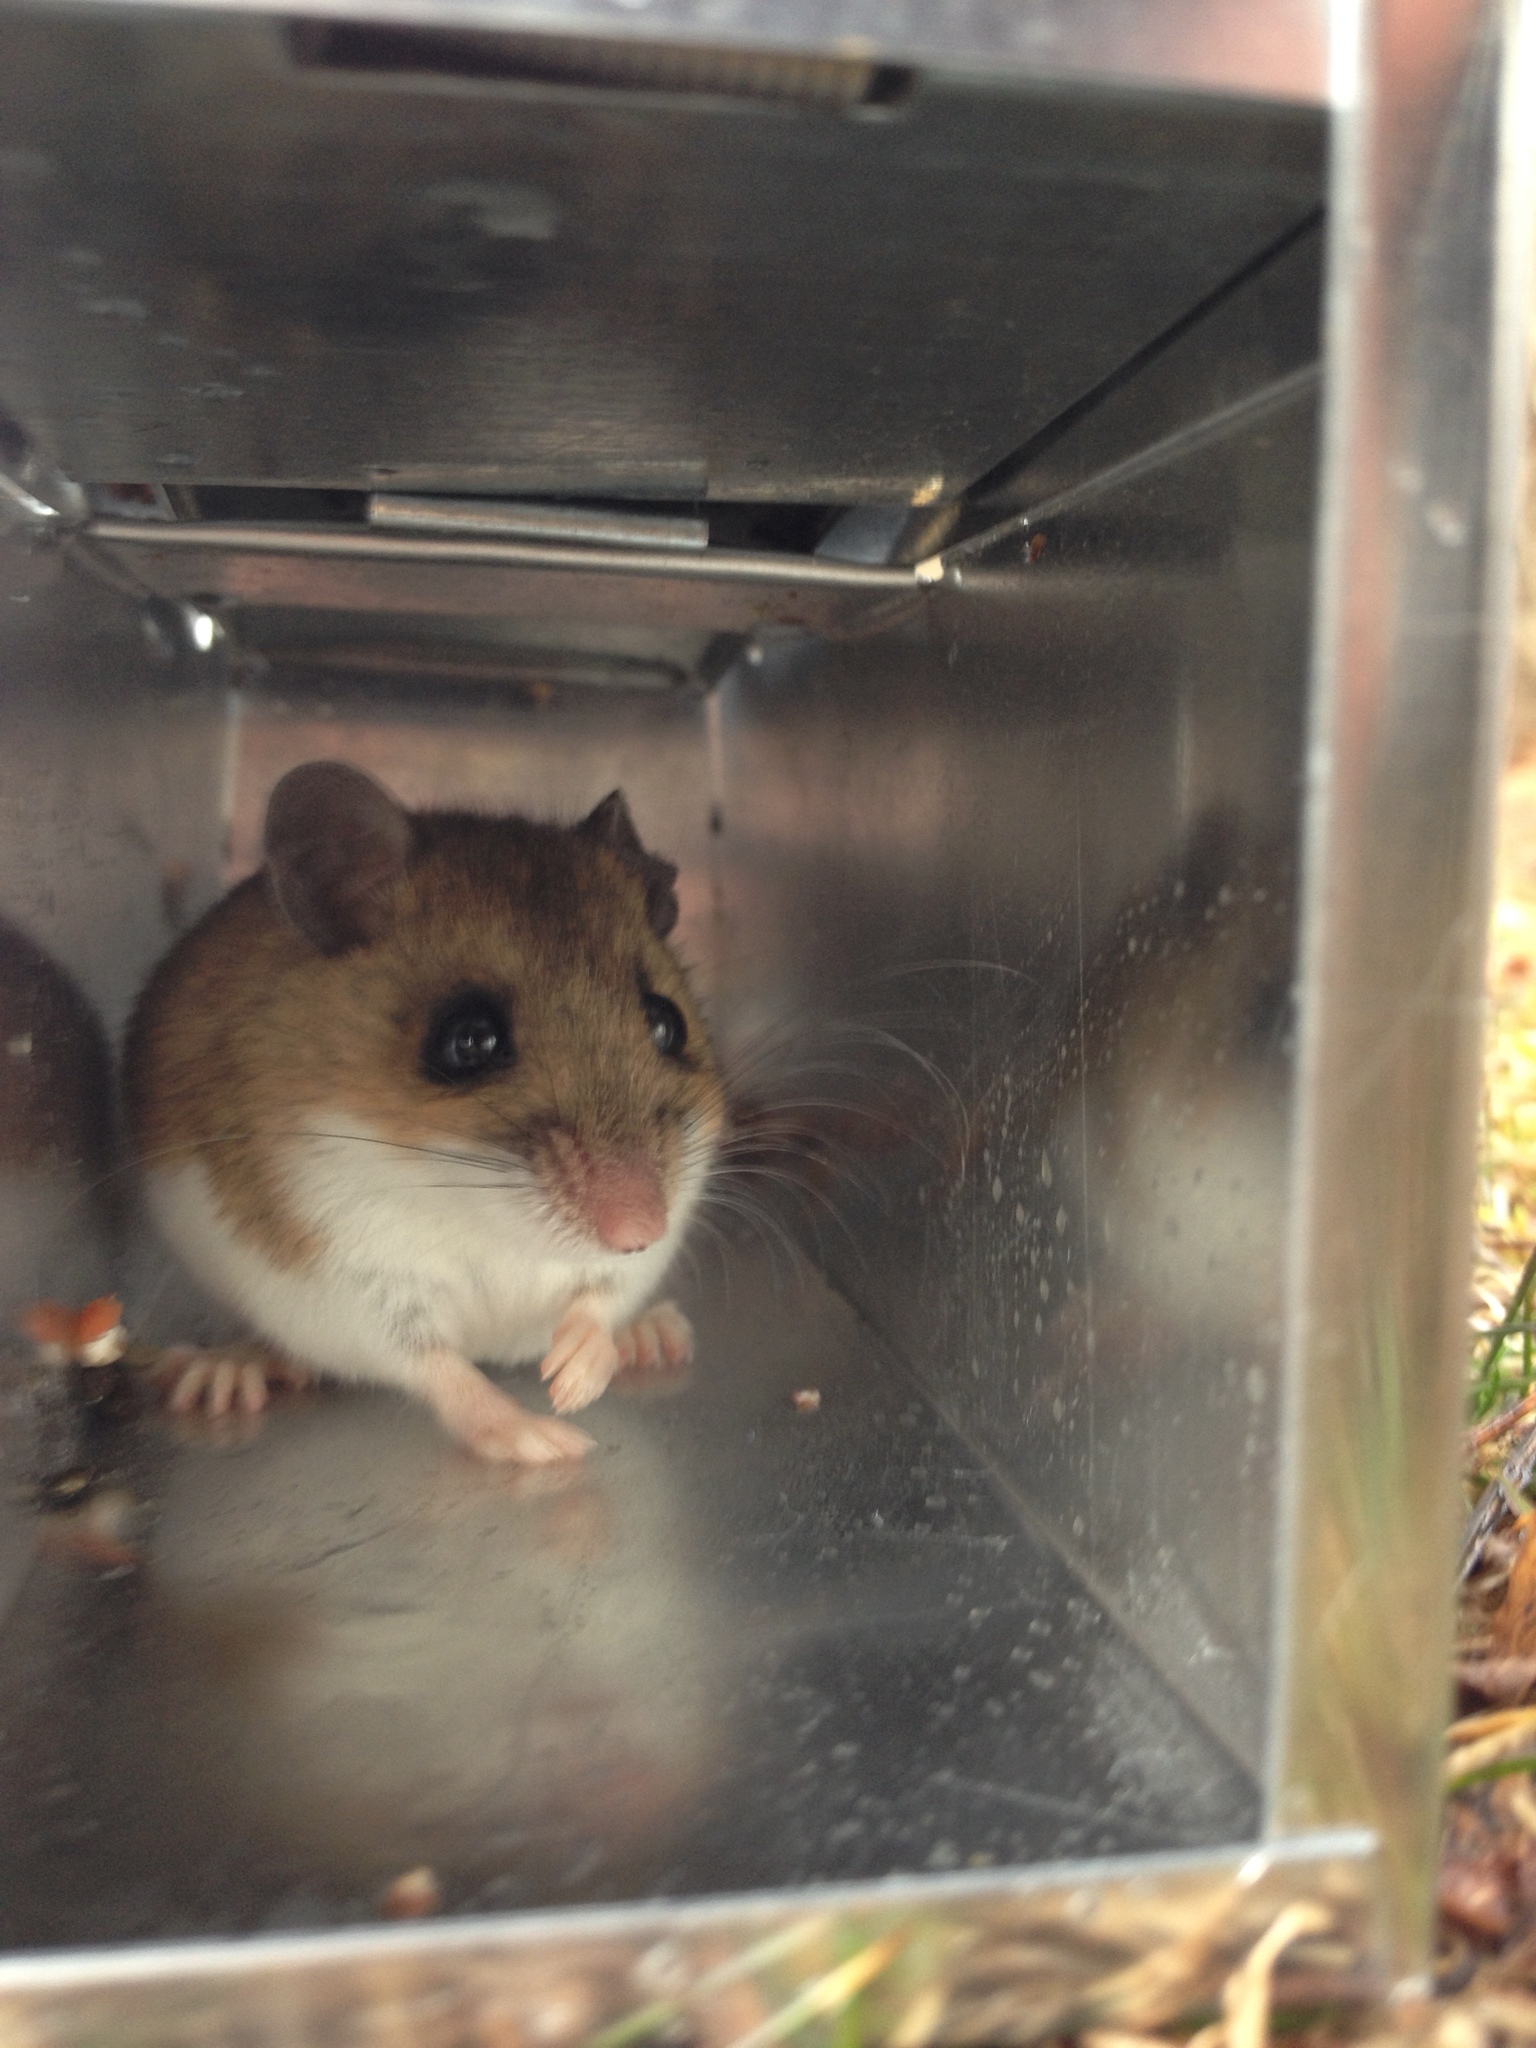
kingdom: Animalia
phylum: Chordata
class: Mammalia
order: Rodentia
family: Cricetidae
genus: Peromyscus
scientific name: Peromyscus leucopus
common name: White-footed deermouse
